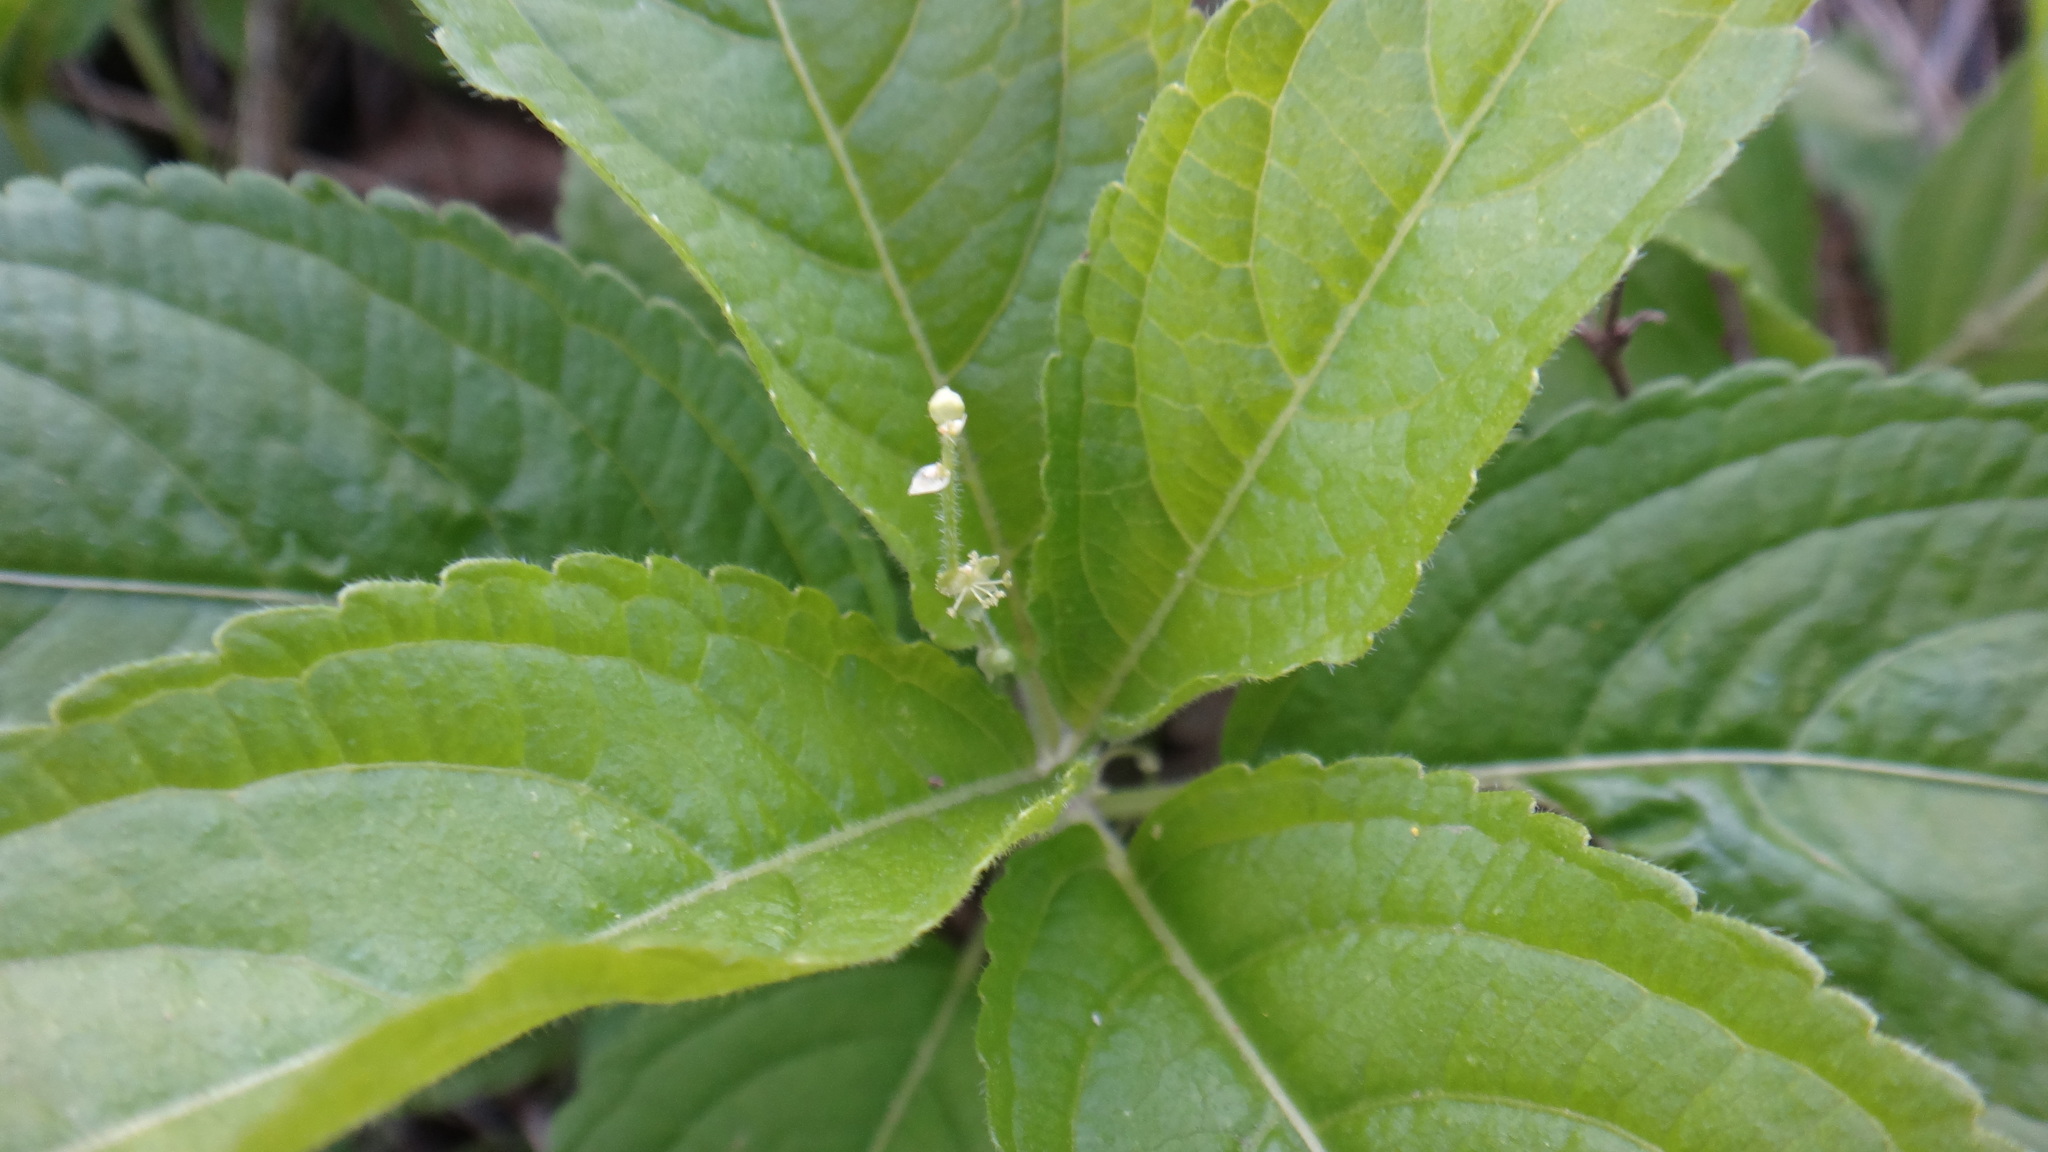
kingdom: Plantae
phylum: Tracheophyta
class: Magnoliopsida
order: Malpighiales
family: Euphorbiaceae
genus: Mercurialis
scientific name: Mercurialis perennis
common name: Dog mercury
